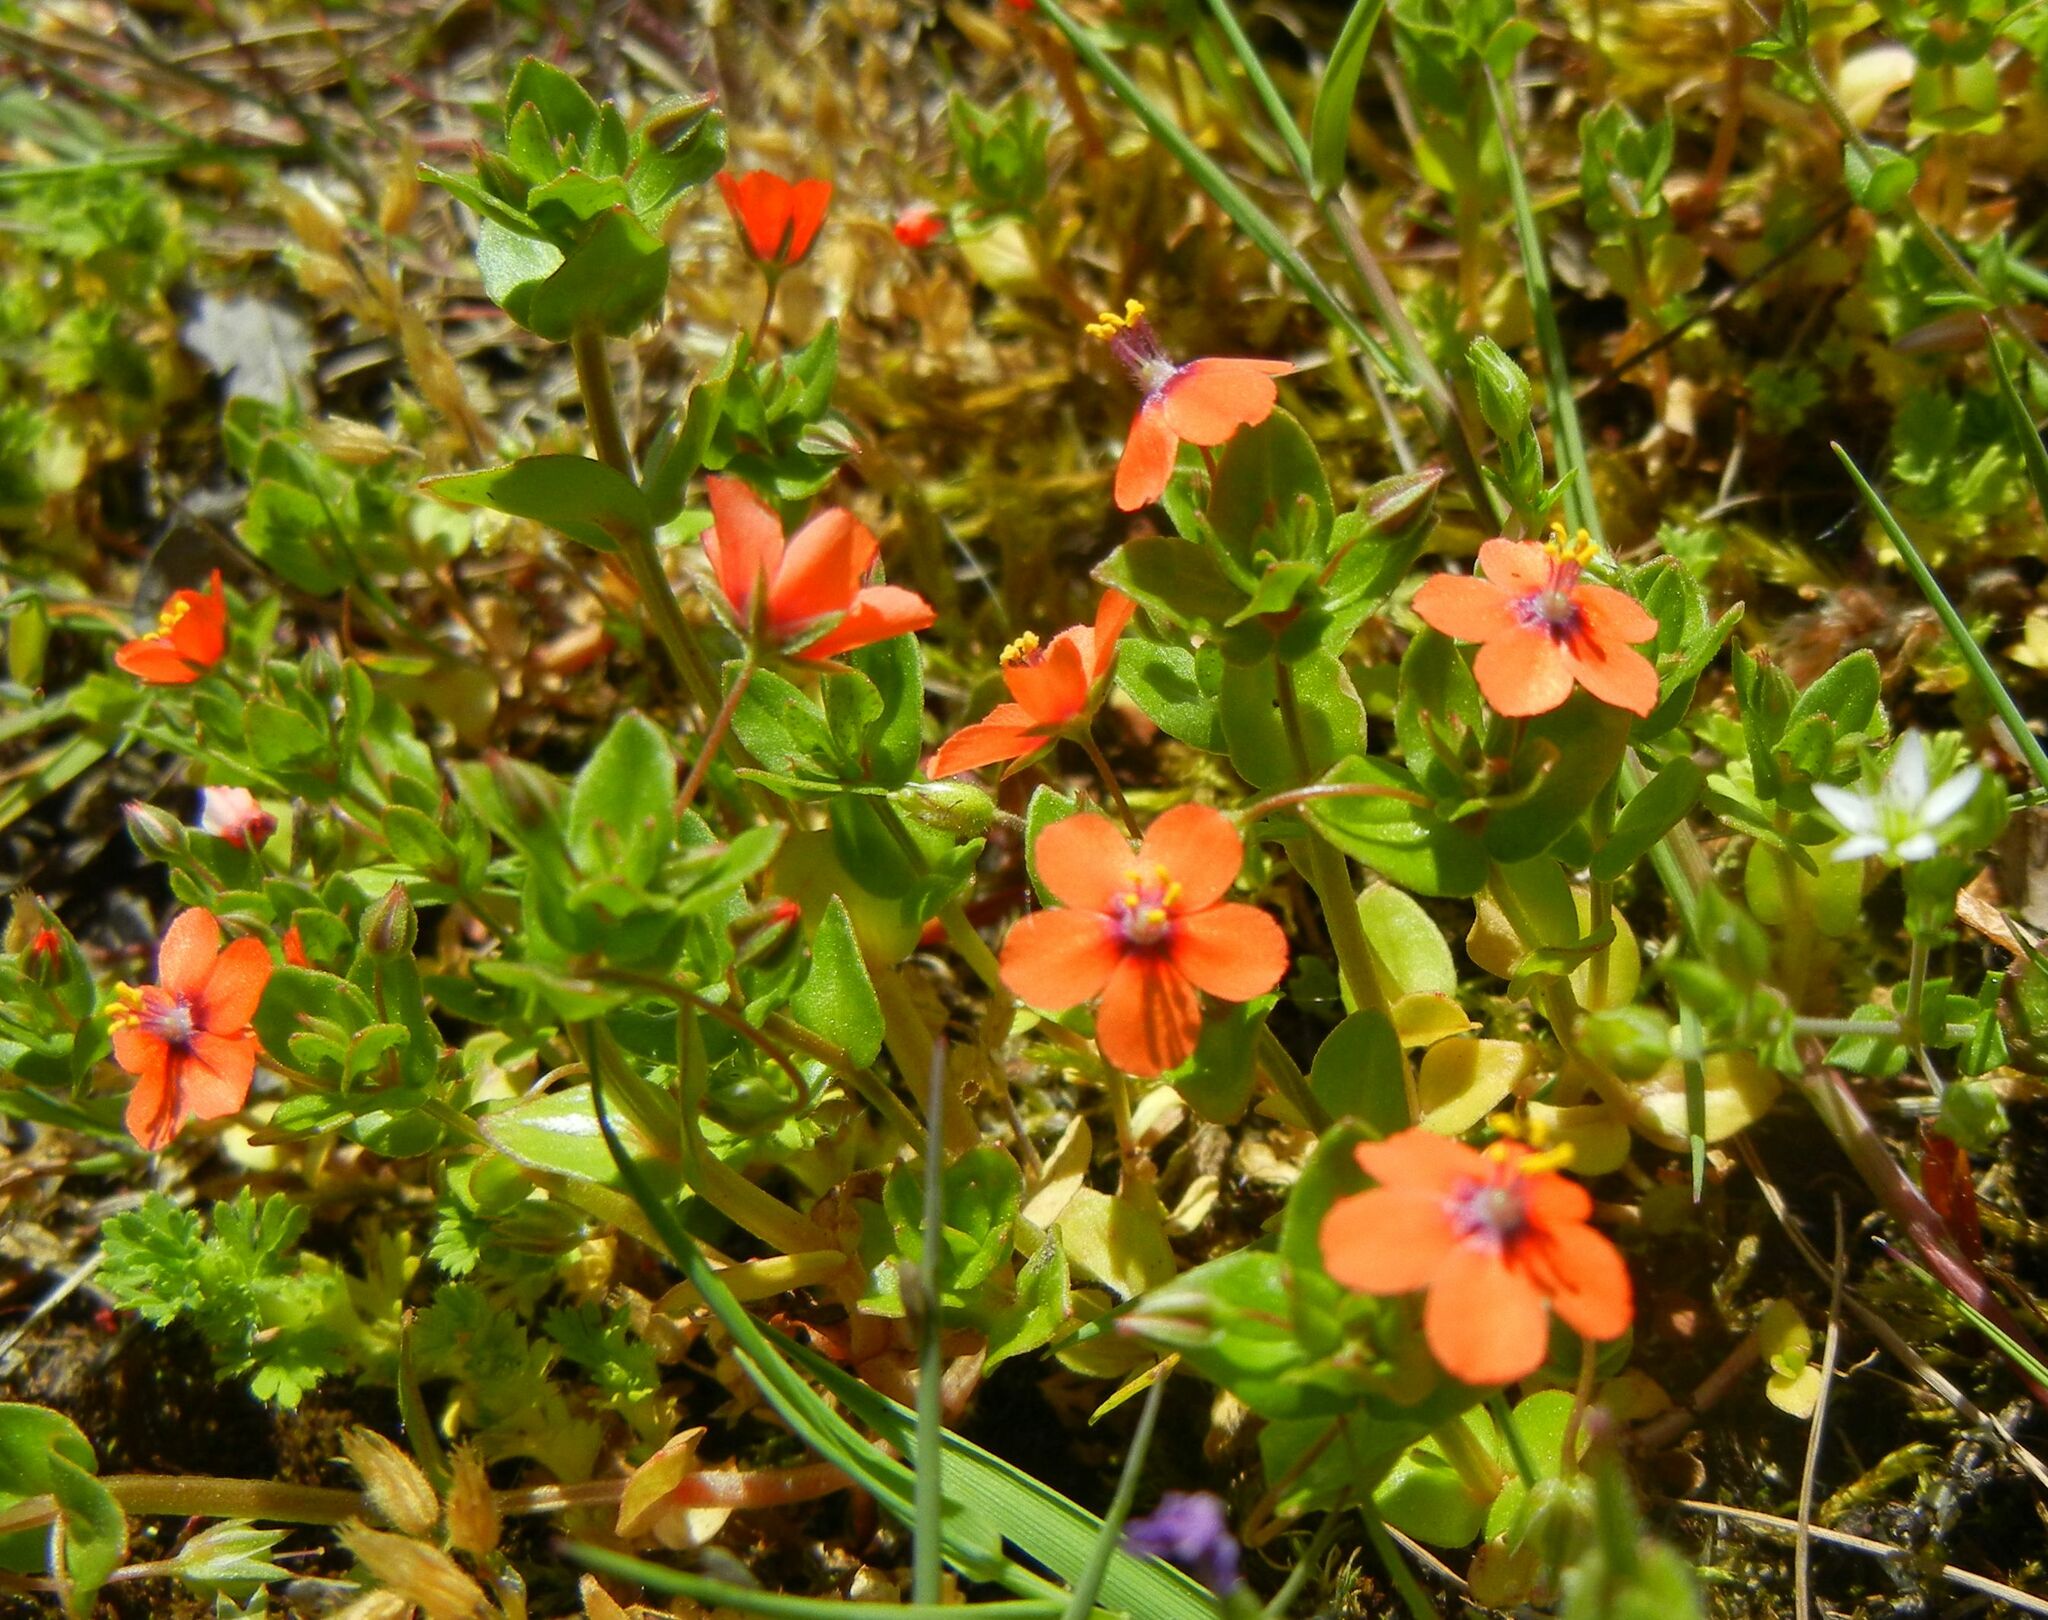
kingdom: Plantae
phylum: Tracheophyta
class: Magnoliopsida
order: Ericales
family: Primulaceae
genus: Lysimachia
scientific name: Lysimachia arvensis
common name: Scarlet pimpernel
